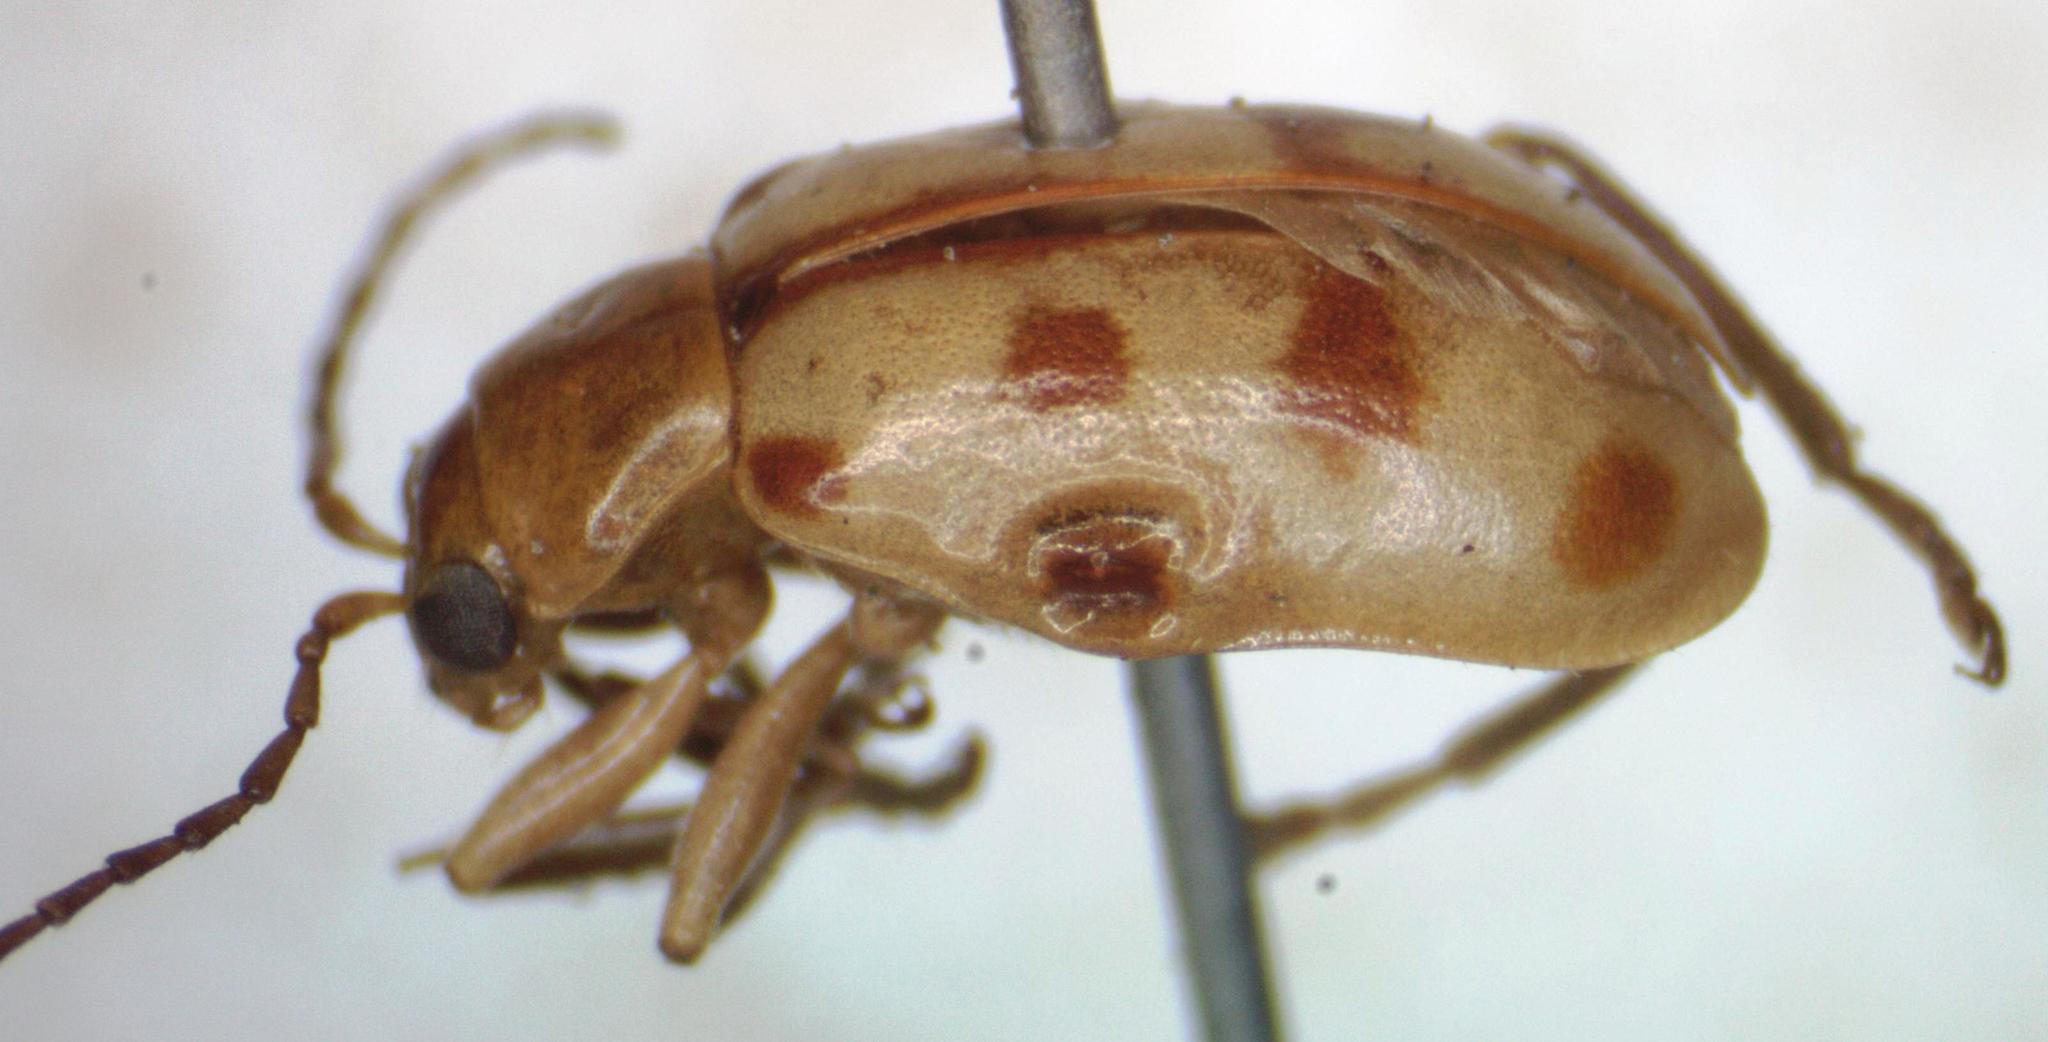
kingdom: Animalia
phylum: Arthropoda
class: Insecta
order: Coleoptera
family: Chrysomelidae
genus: Malacorhinus
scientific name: Malacorhinus
